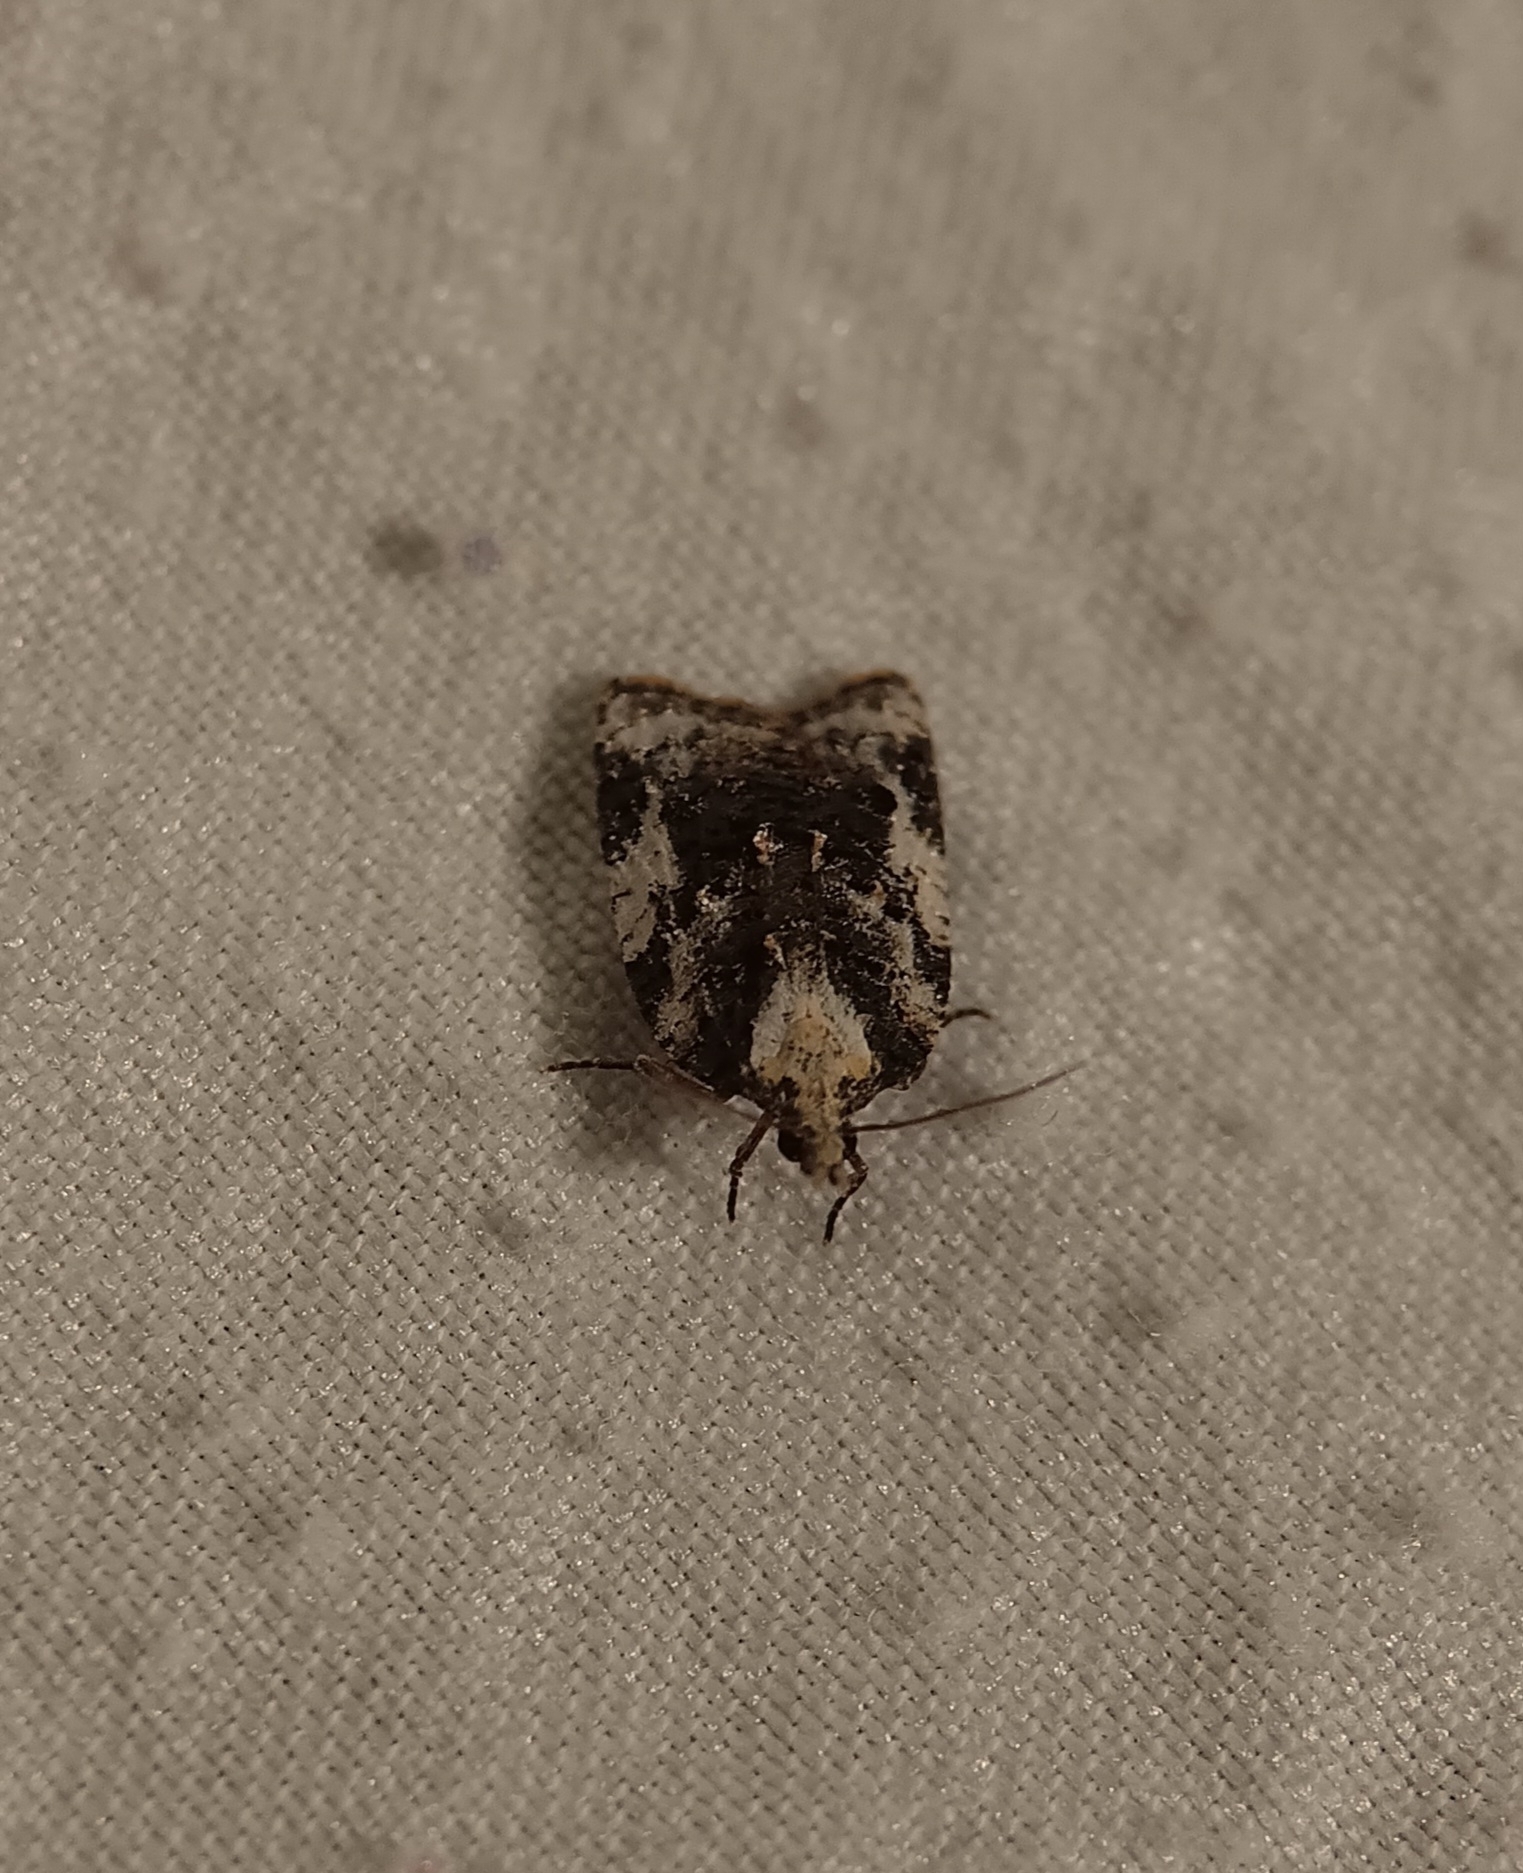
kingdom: Animalia
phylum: Arthropoda
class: Insecta
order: Lepidoptera
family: Tortricidae
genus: Platynota
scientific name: Platynota exasperatana
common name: Exasperating platynota moth
